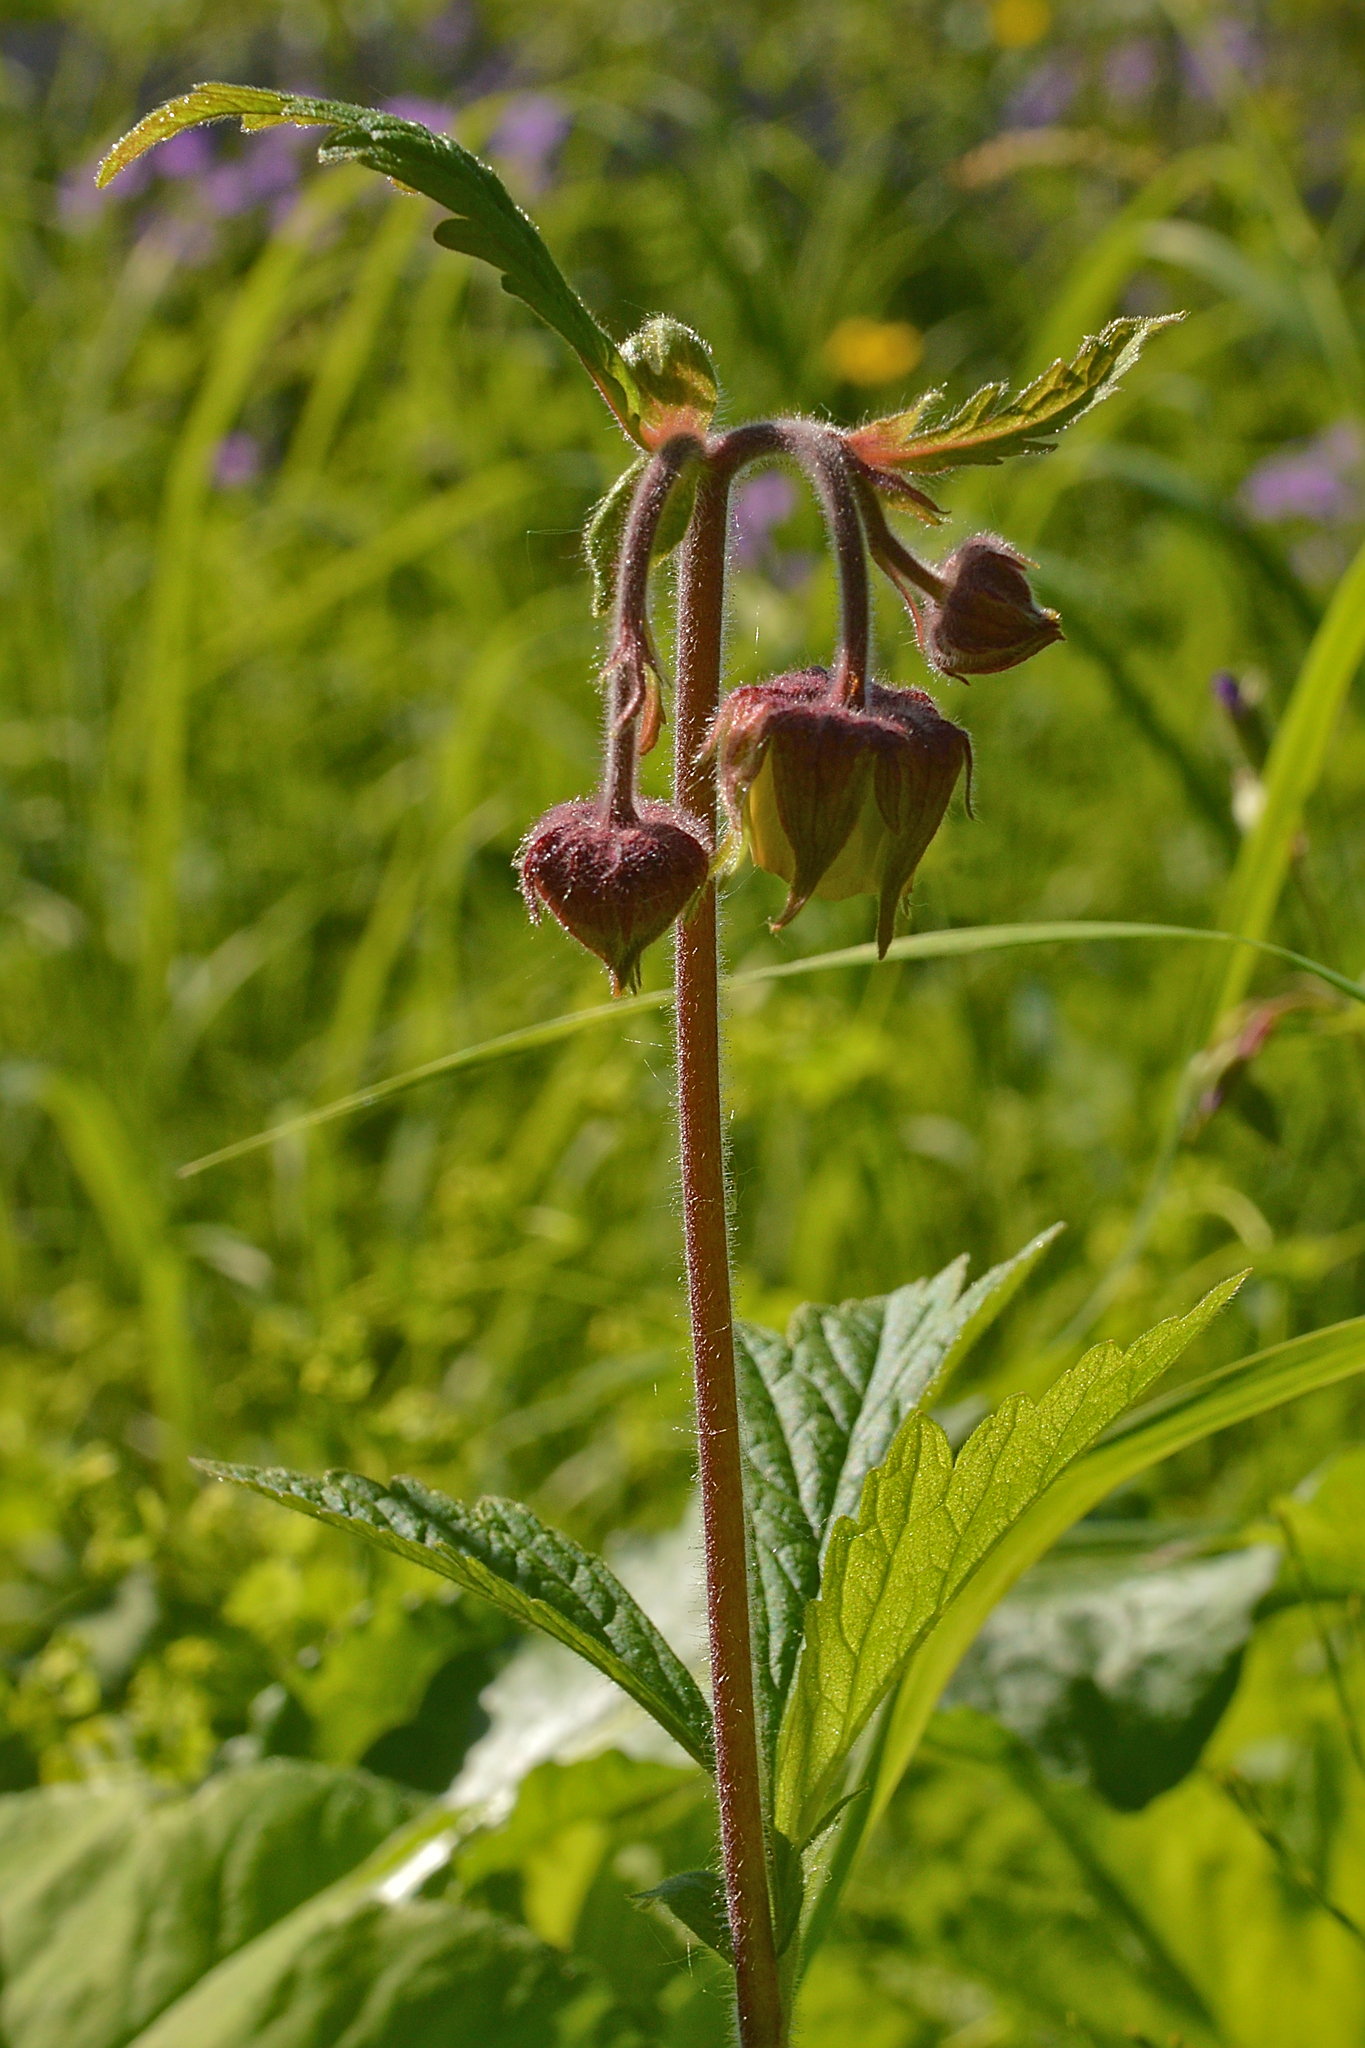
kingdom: Plantae
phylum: Tracheophyta
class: Magnoliopsida
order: Rosales
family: Rosaceae
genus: Geum
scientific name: Geum rivale
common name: Water avens
